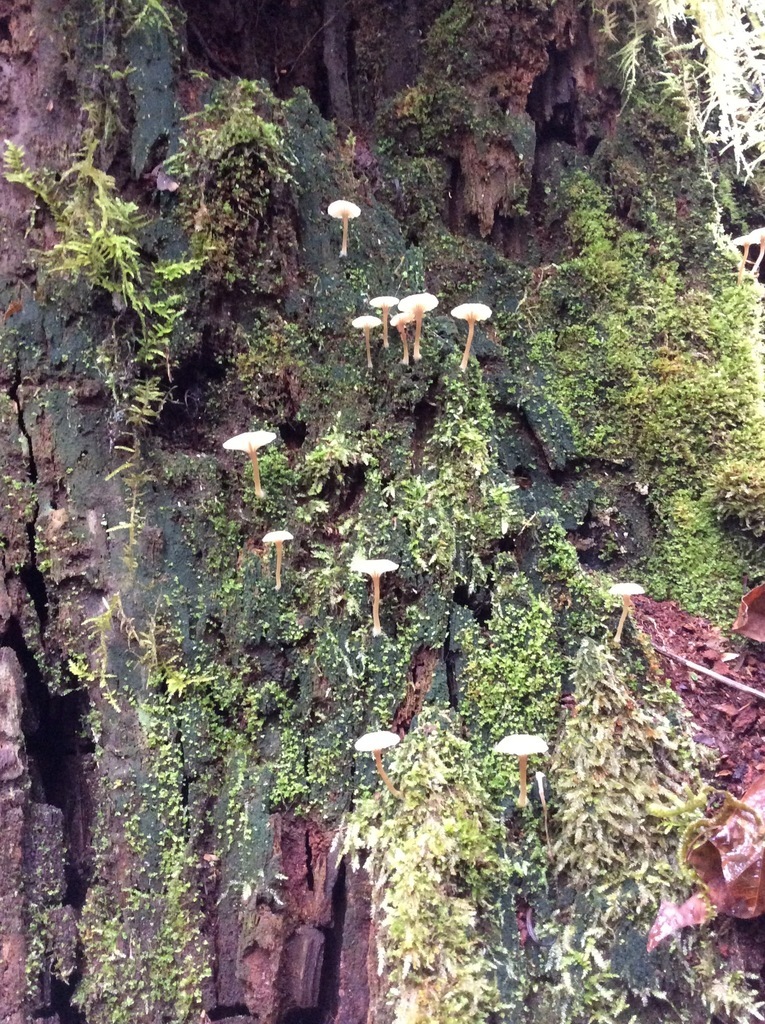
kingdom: Fungi
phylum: Basidiomycota
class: Agaricomycetes
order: Agaricales
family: Hygrophoraceae
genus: Lichenomphalia
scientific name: Lichenomphalia
